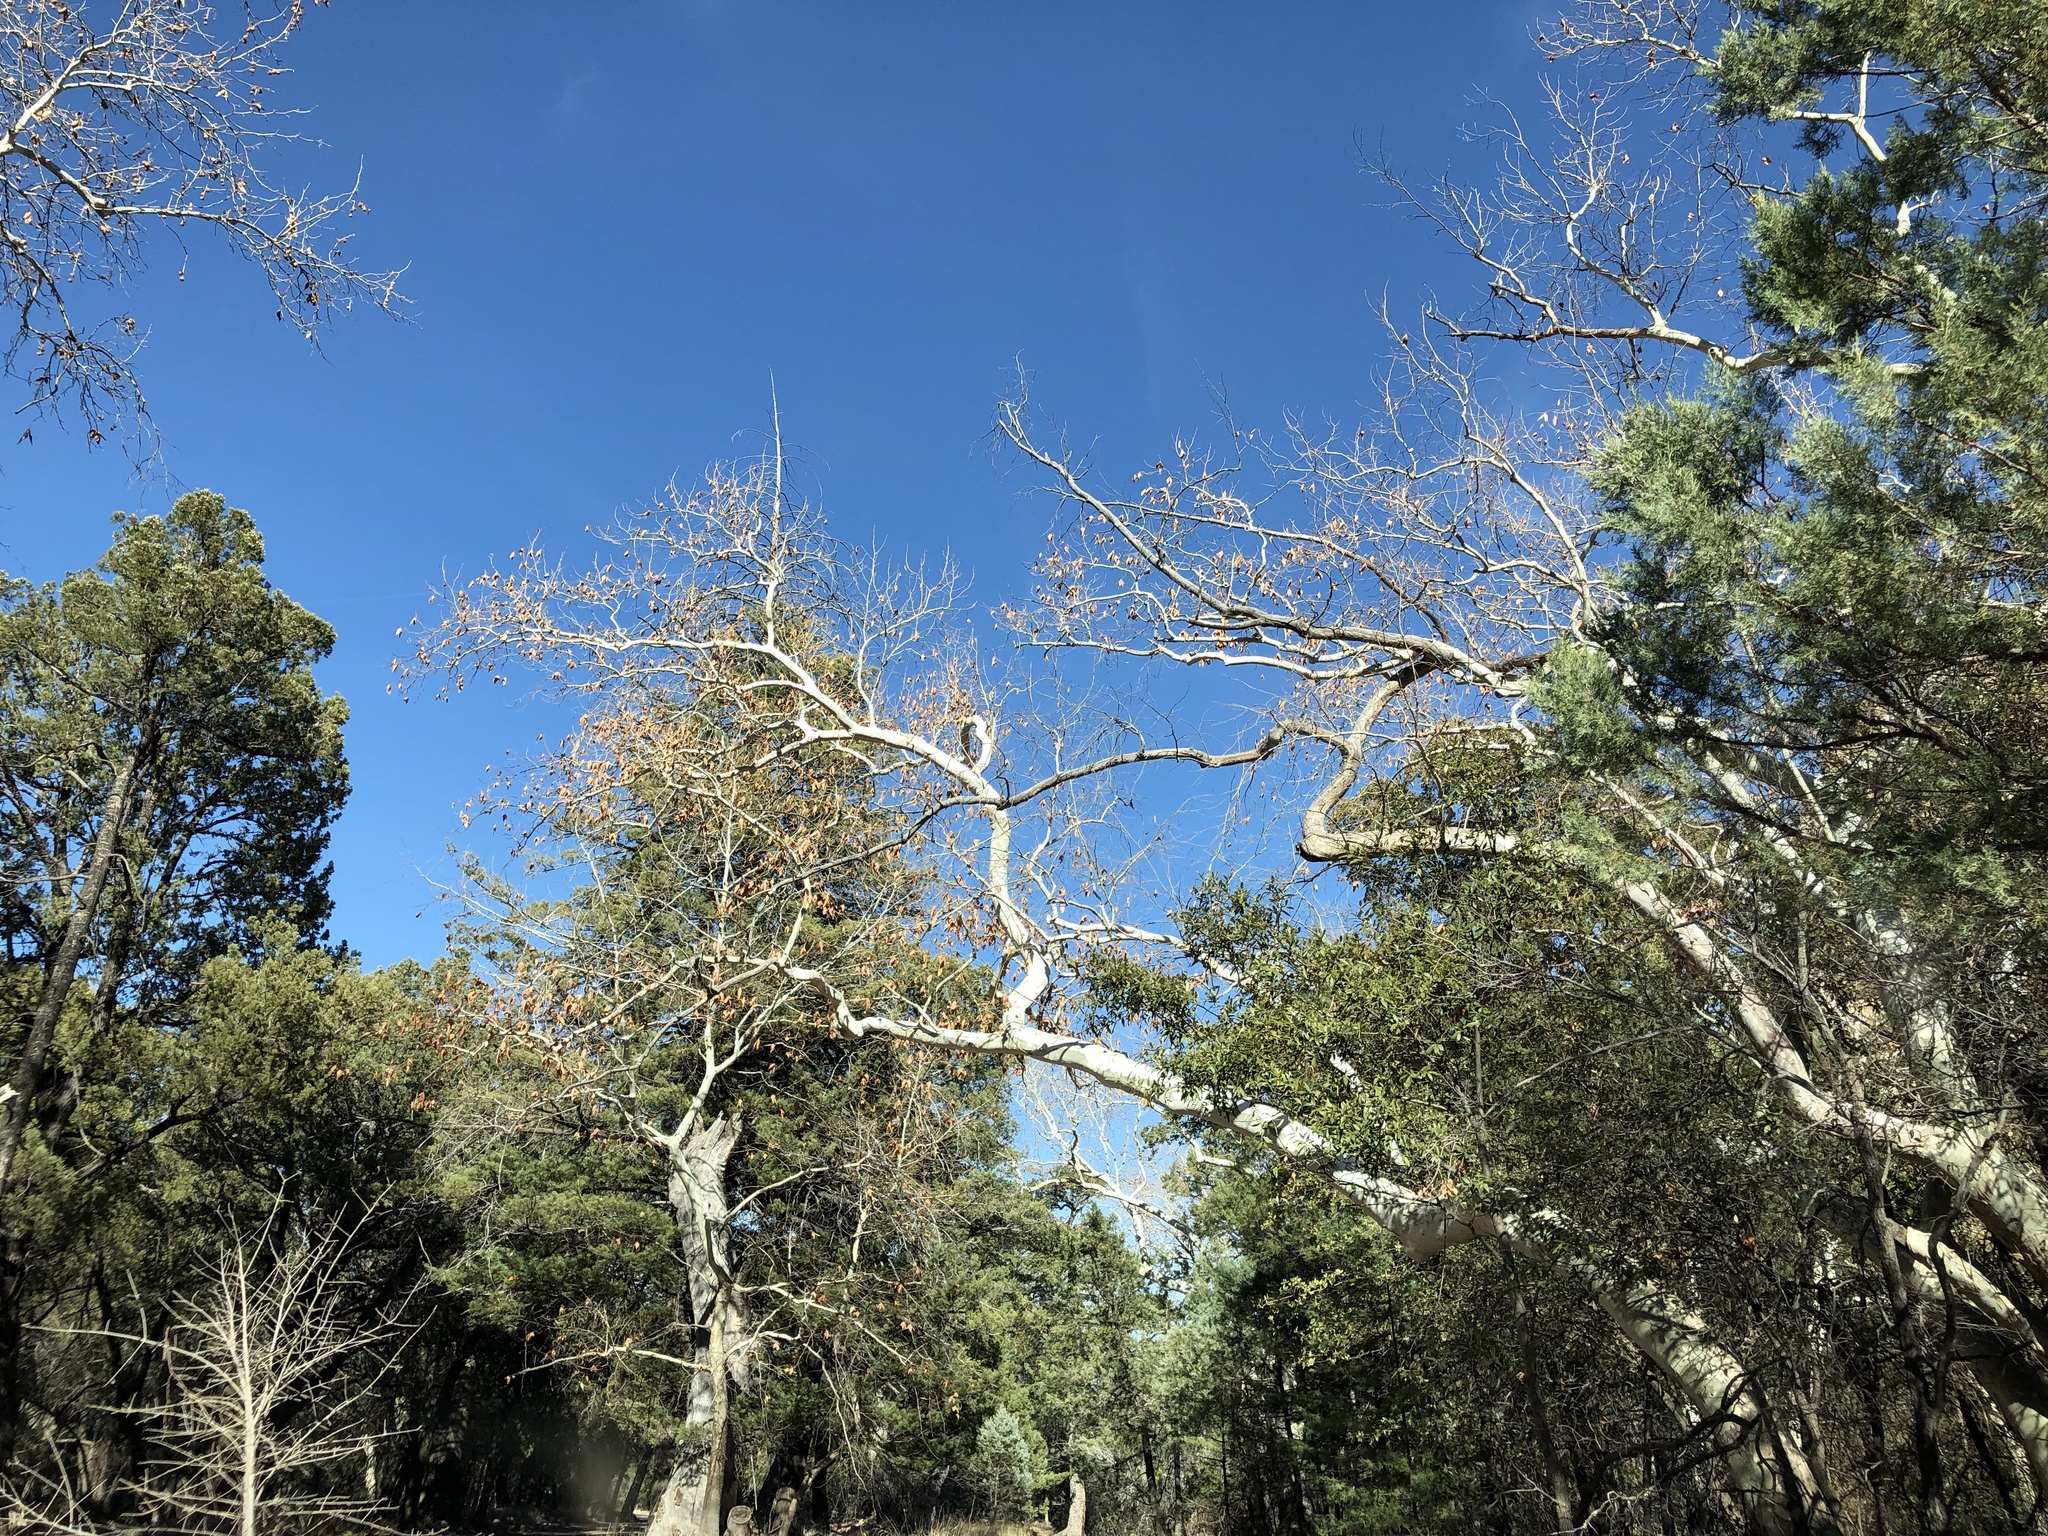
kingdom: Plantae
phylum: Tracheophyta
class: Magnoliopsida
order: Proteales
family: Platanaceae
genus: Platanus
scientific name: Platanus wrightii
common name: Arizona sycamore
